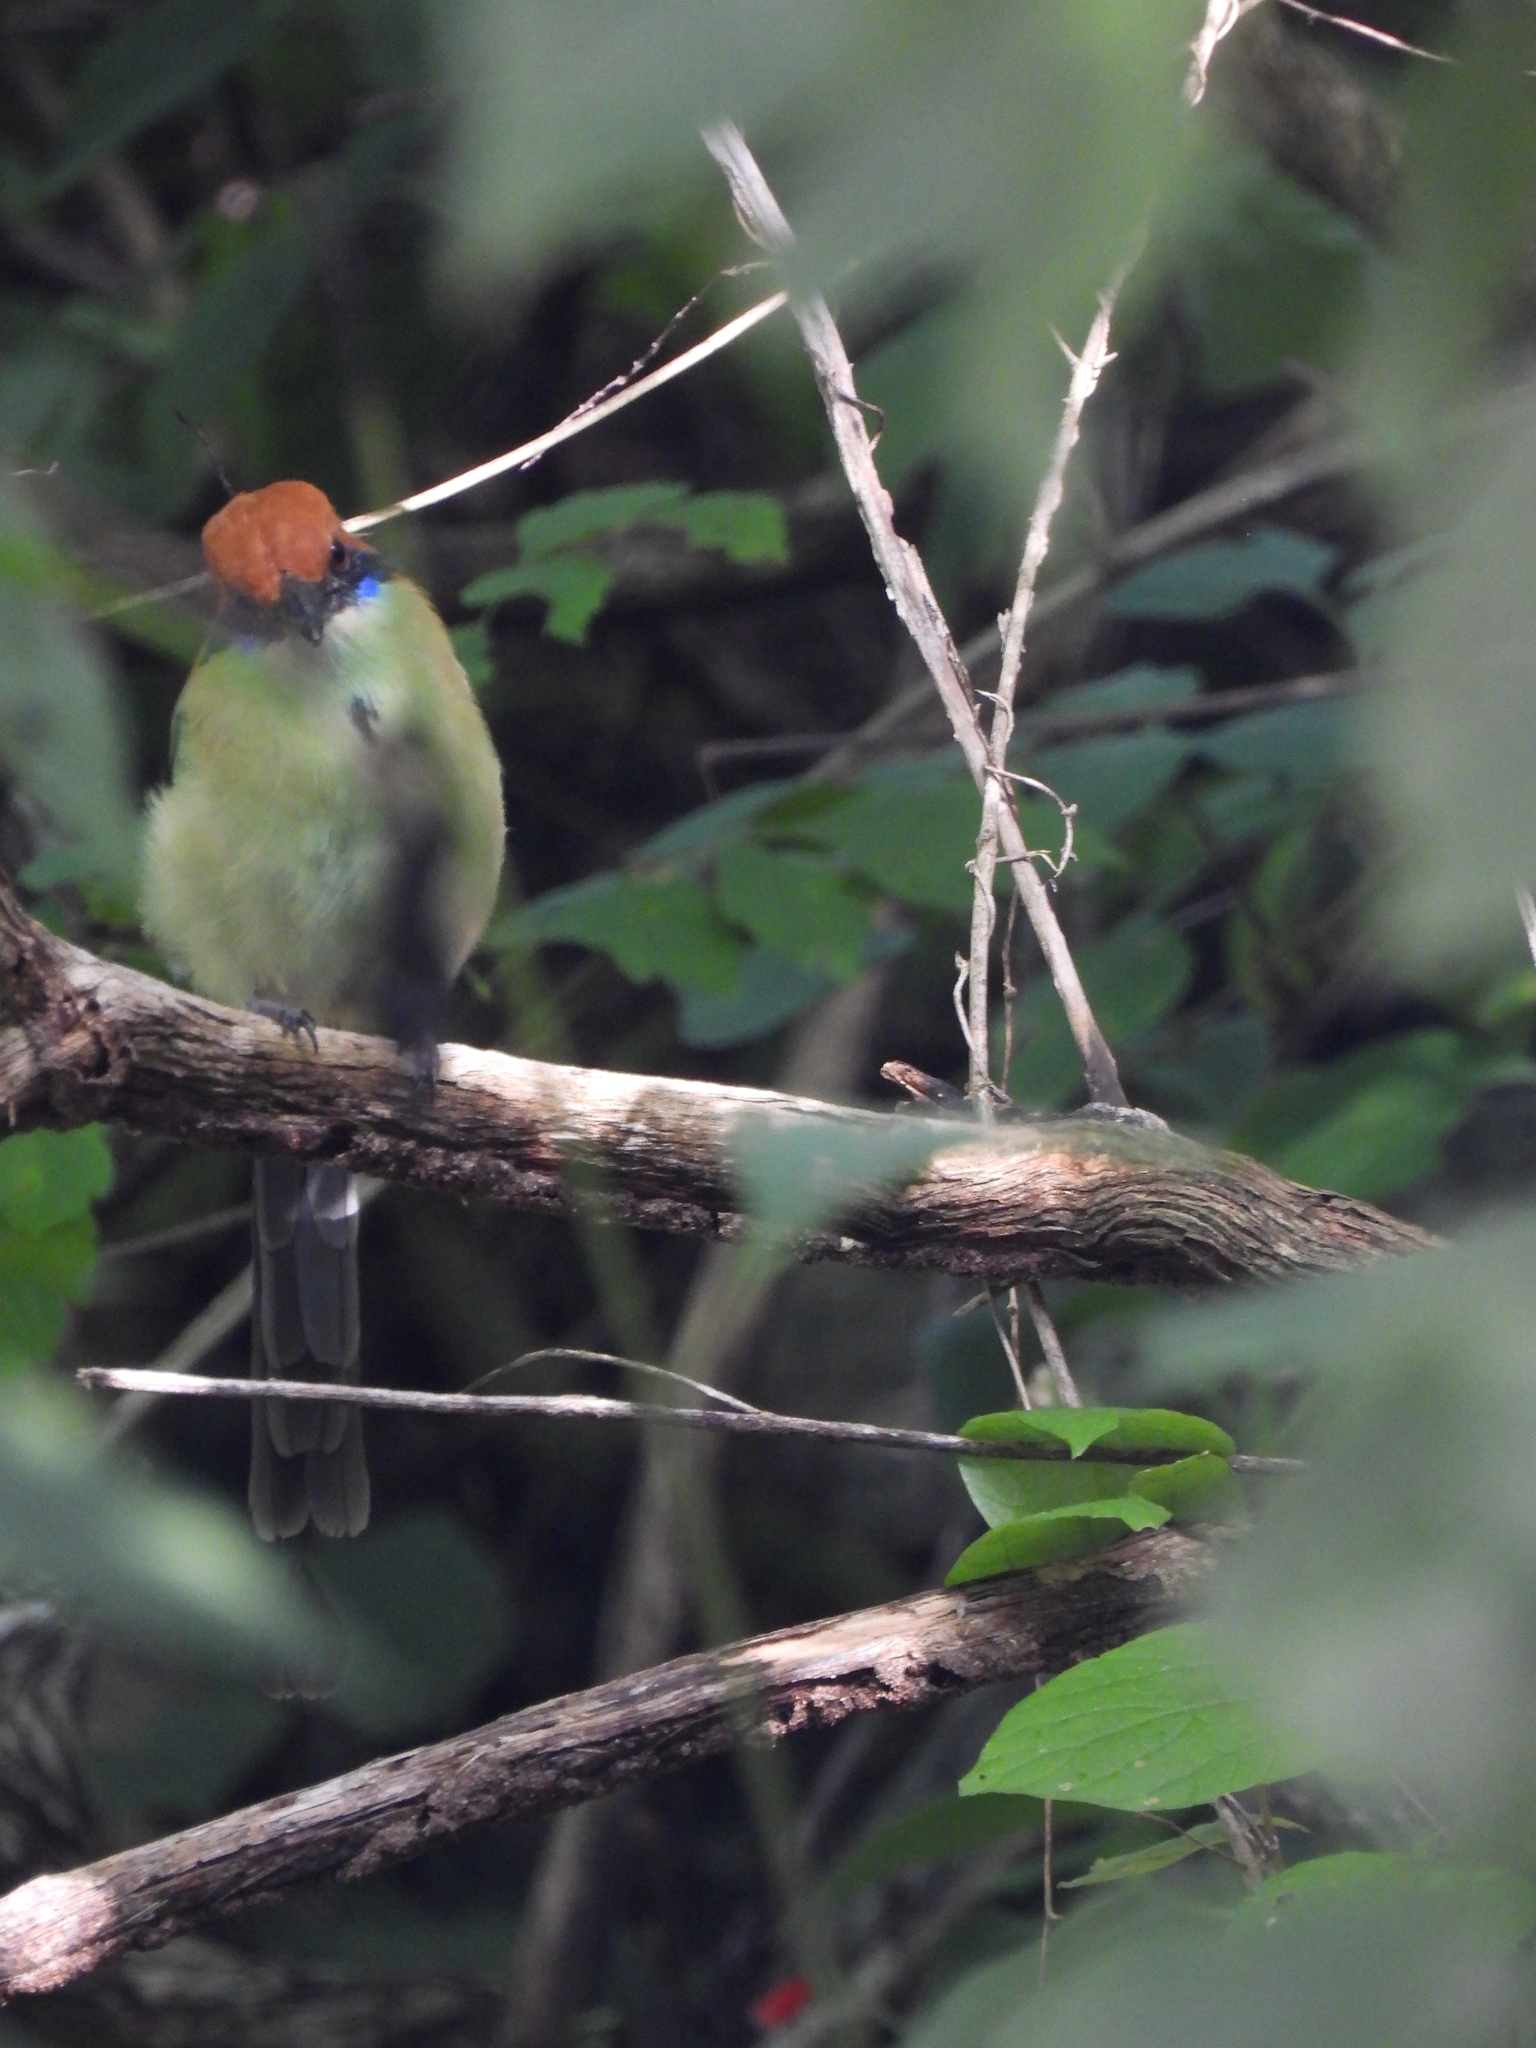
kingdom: Animalia
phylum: Chordata
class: Aves
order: Coraciiformes
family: Momotidae
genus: Momotus
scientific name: Momotus mexicanus
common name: Russet-crowned motmot
